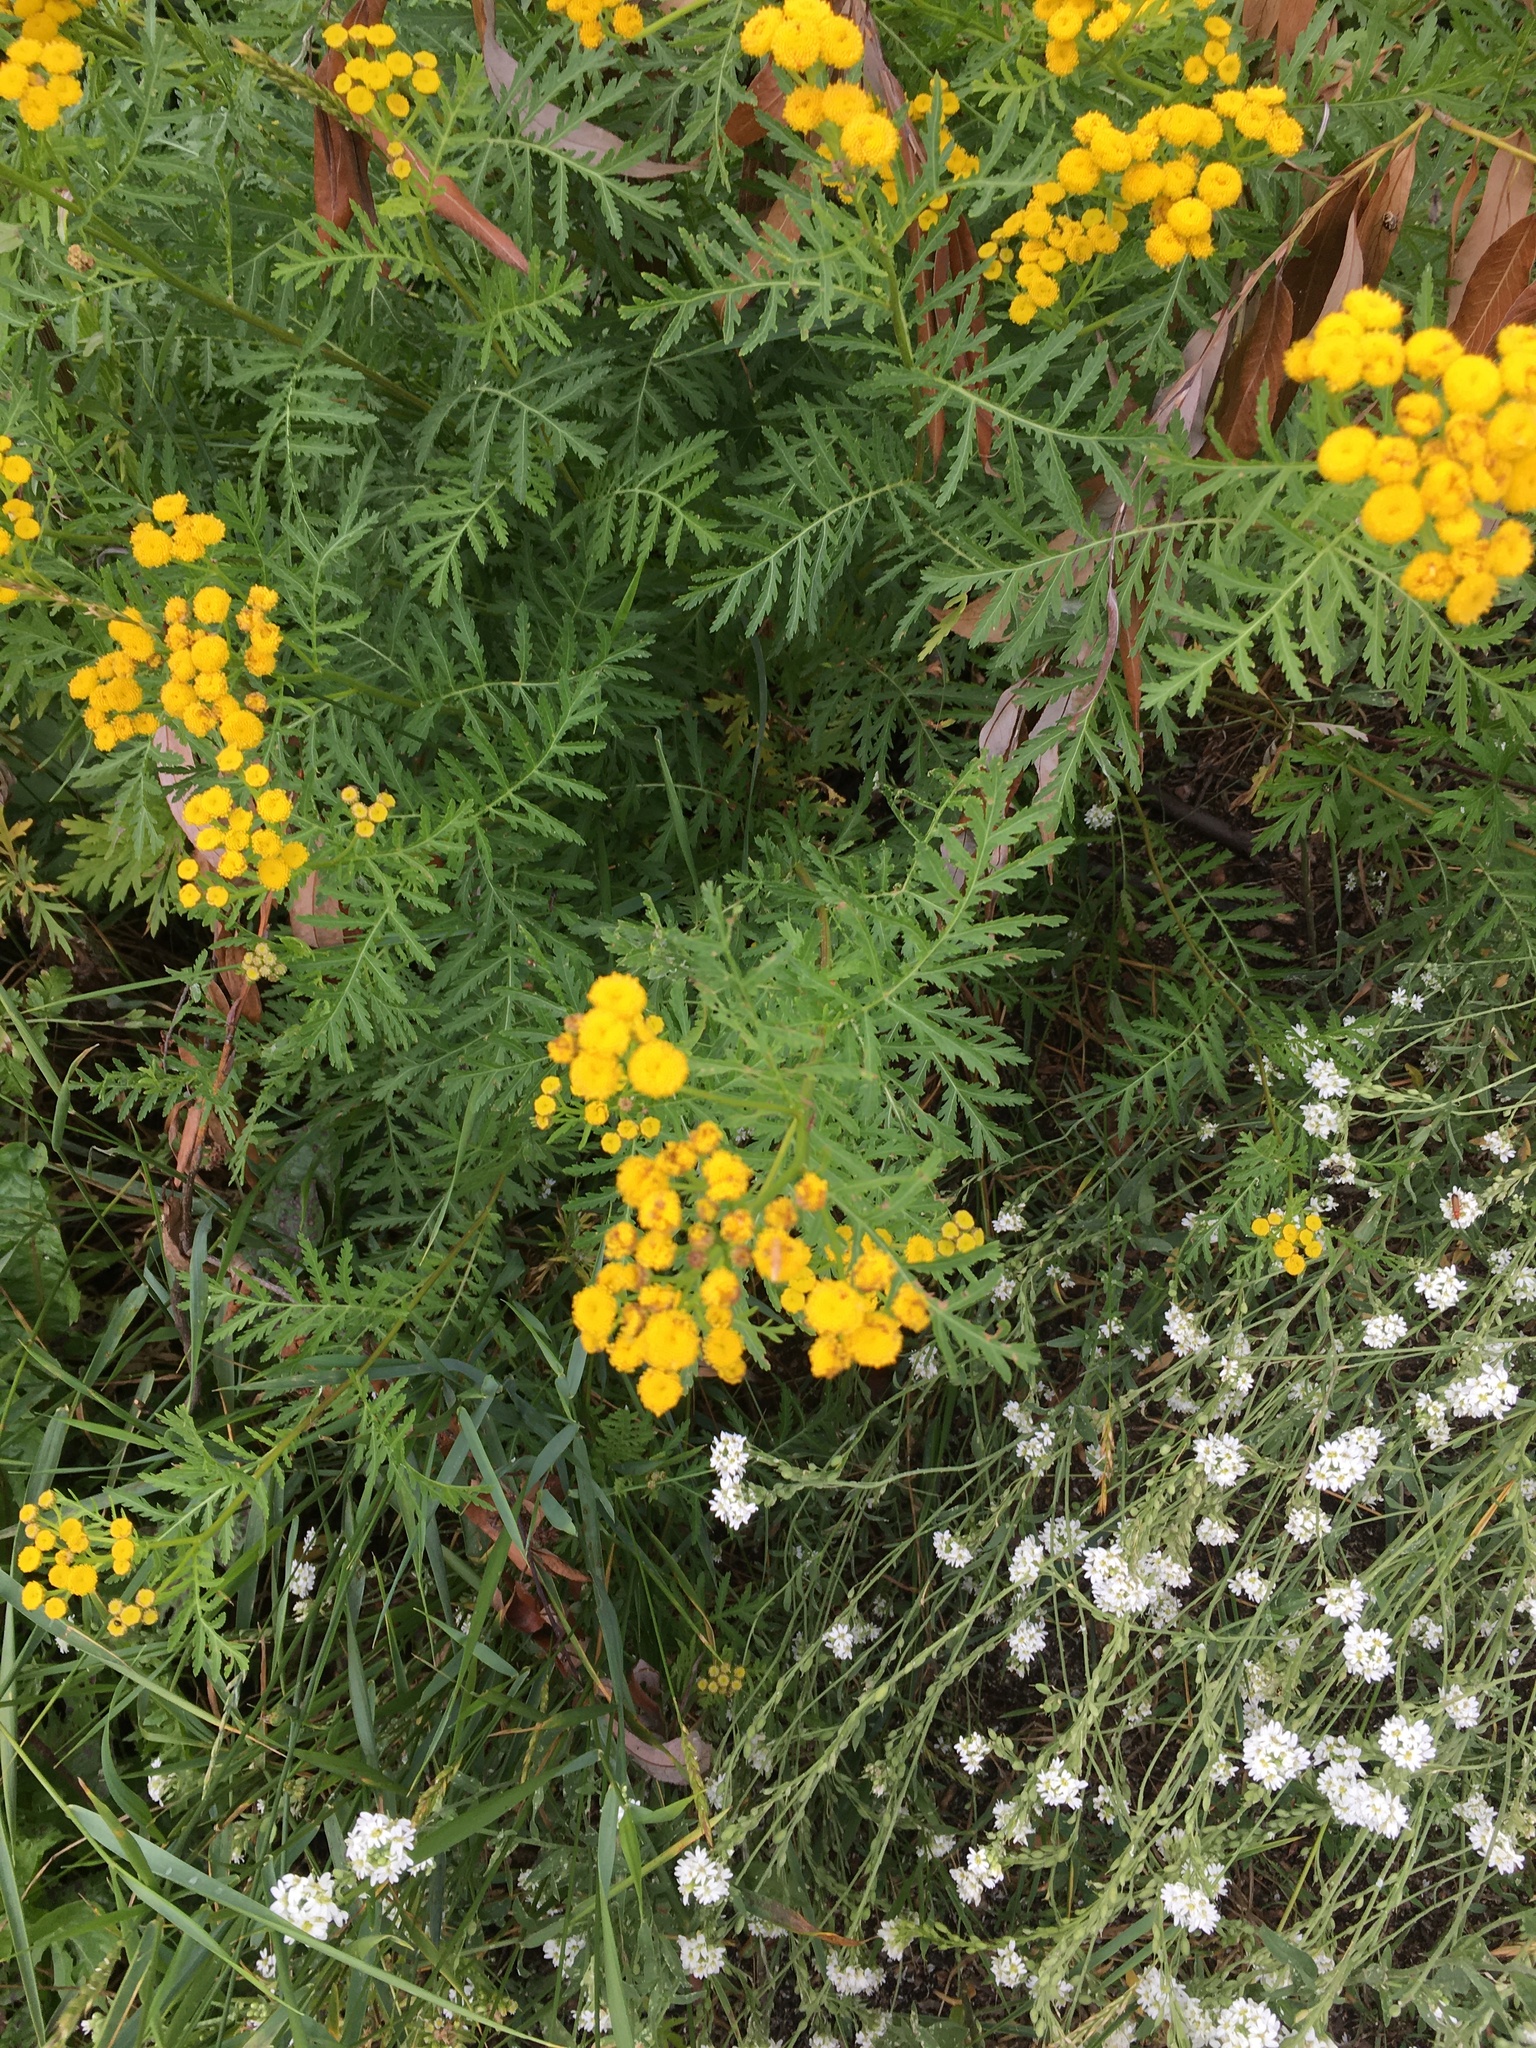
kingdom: Plantae
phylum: Tracheophyta
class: Magnoliopsida
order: Asterales
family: Asteraceae
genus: Tanacetum
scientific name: Tanacetum vulgare
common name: Common tansy
